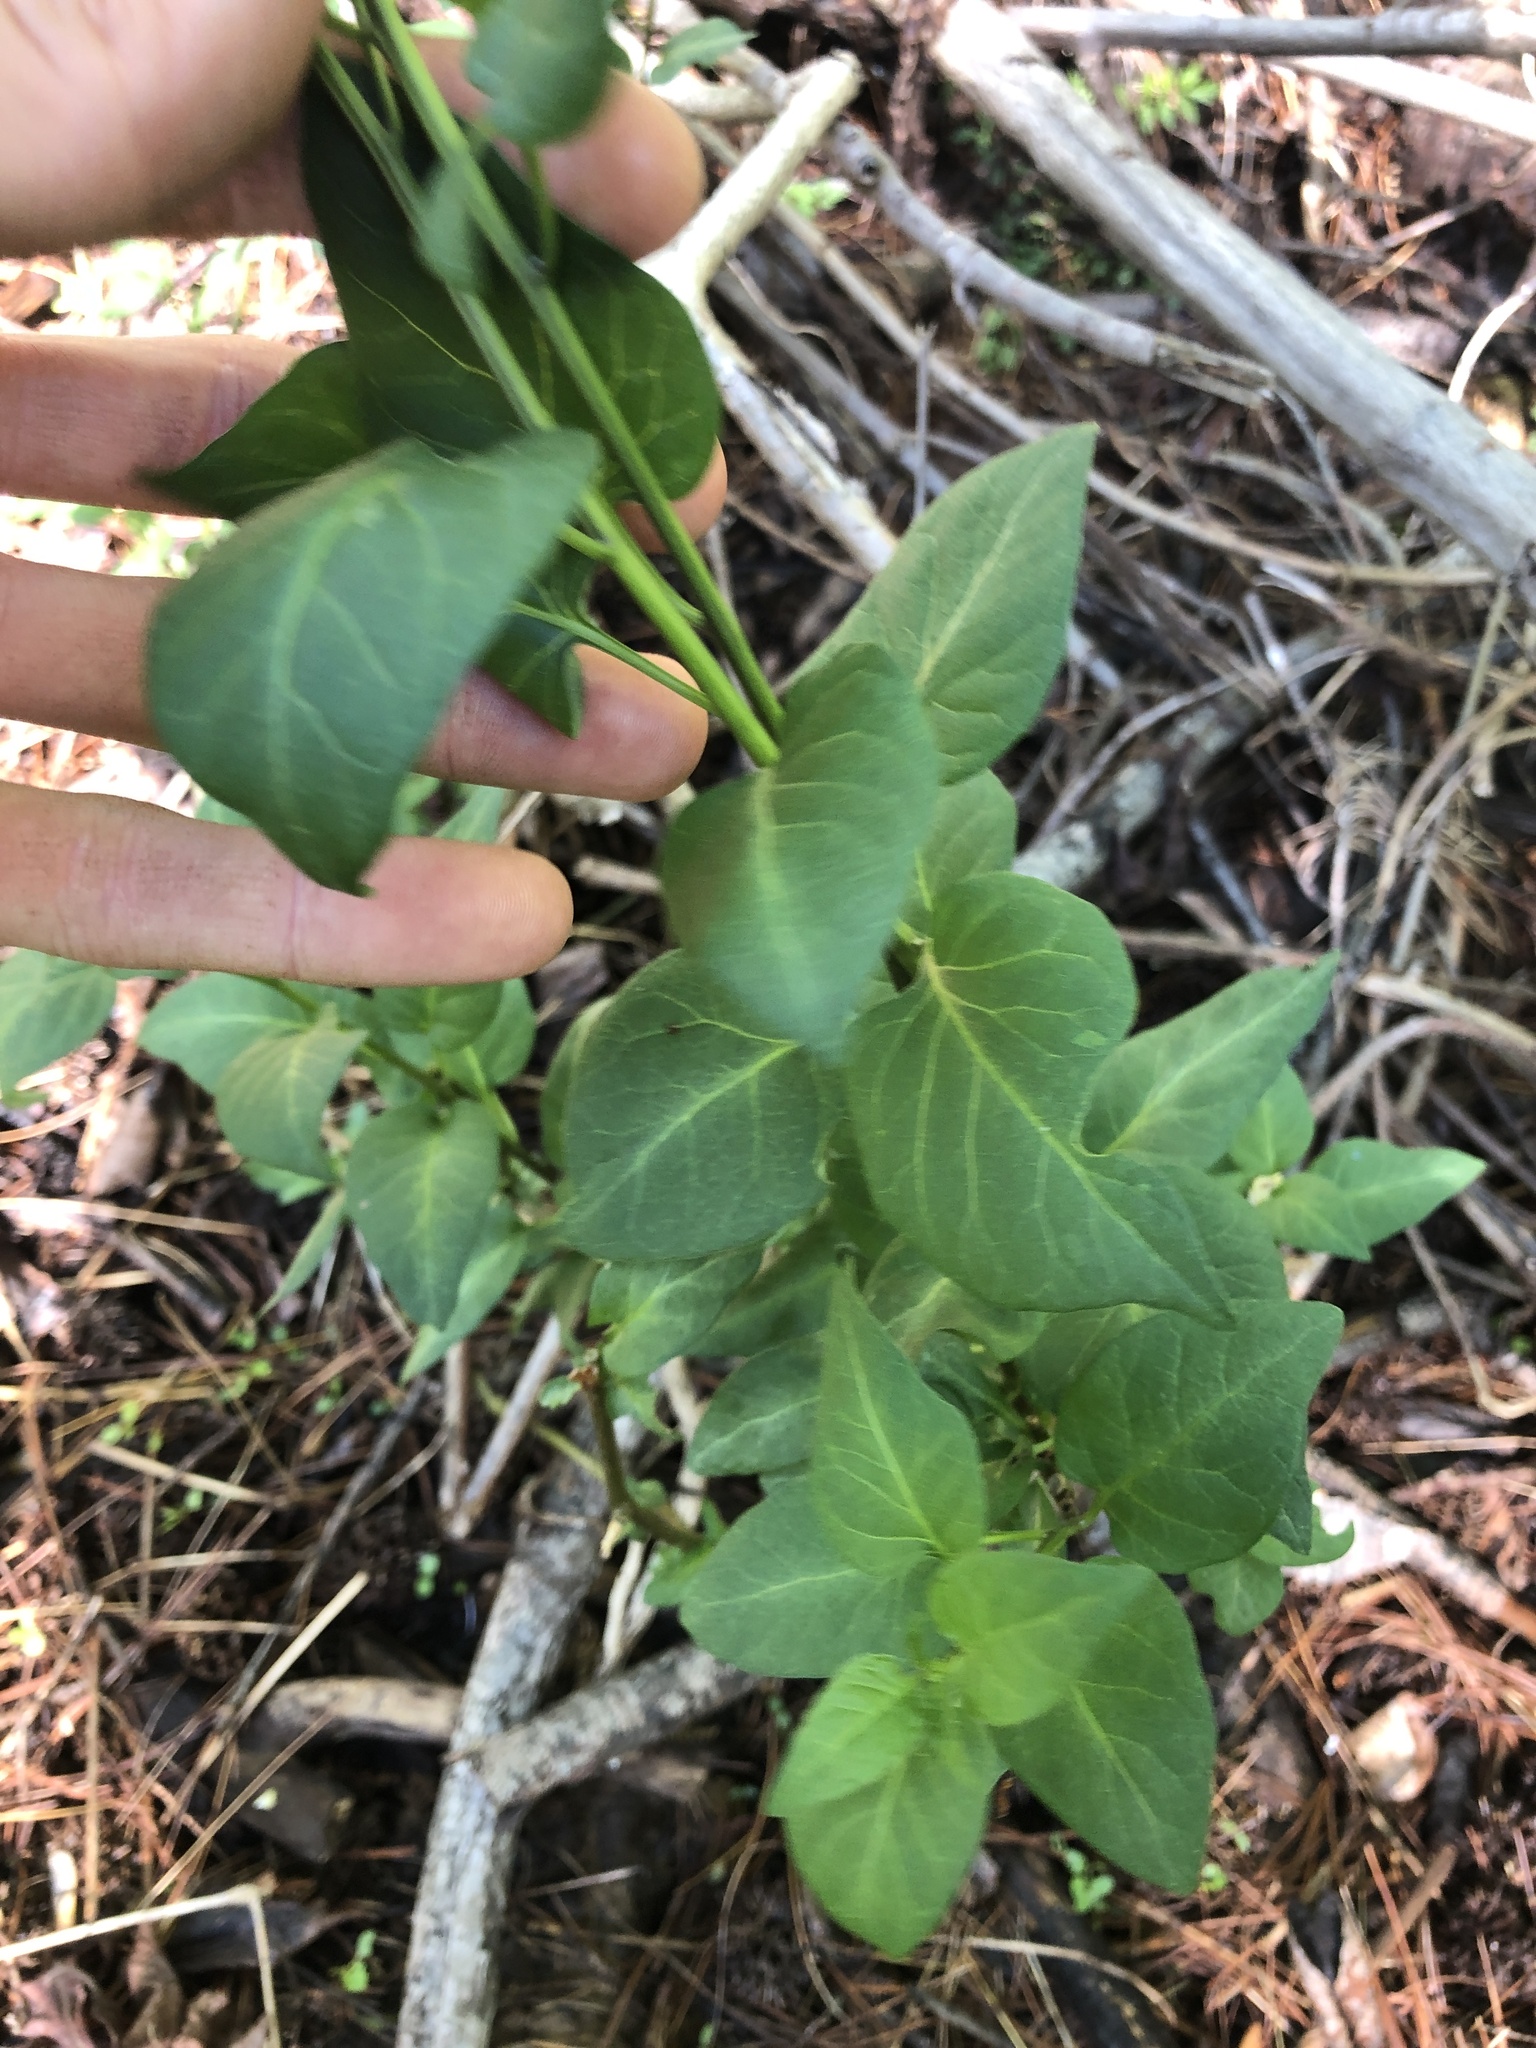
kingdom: Plantae
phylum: Tracheophyta
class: Magnoliopsida
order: Solanales
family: Solanaceae
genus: Solanum
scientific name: Solanum dulcamara
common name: Climbing nightshade
